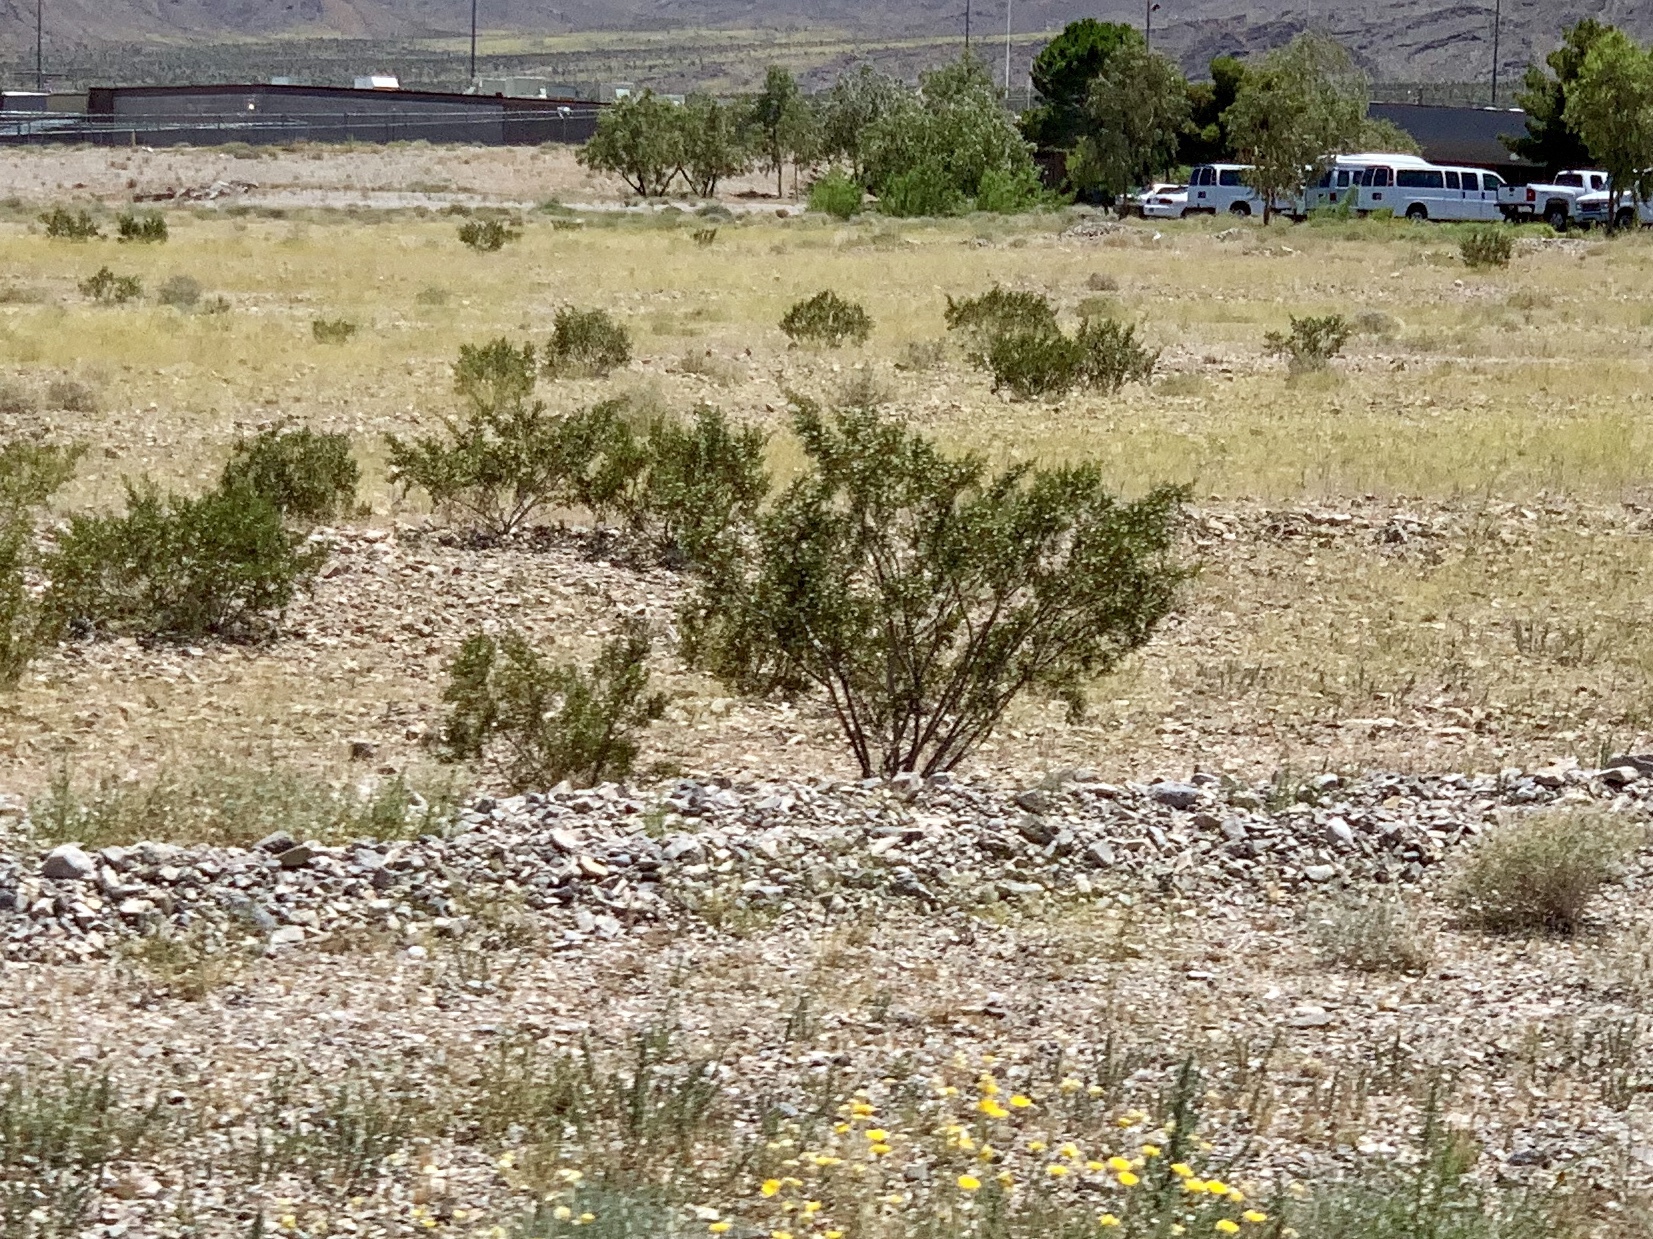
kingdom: Plantae
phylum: Tracheophyta
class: Magnoliopsida
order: Zygophyllales
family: Zygophyllaceae
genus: Larrea
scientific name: Larrea tridentata
